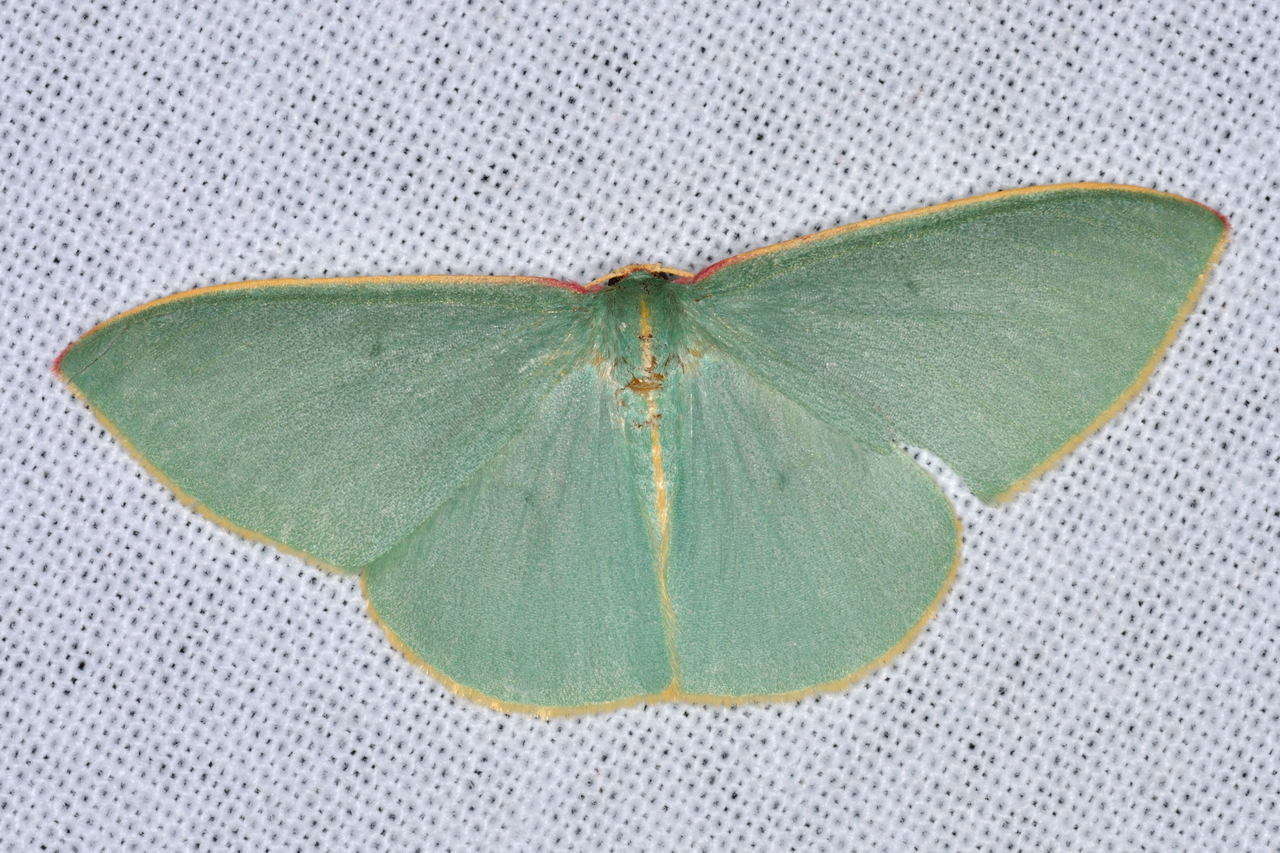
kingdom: Animalia
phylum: Arthropoda
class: Insecta
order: Lepidoptera
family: Geometridae
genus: Chlorocoma
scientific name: Chlorocoma assimilis
